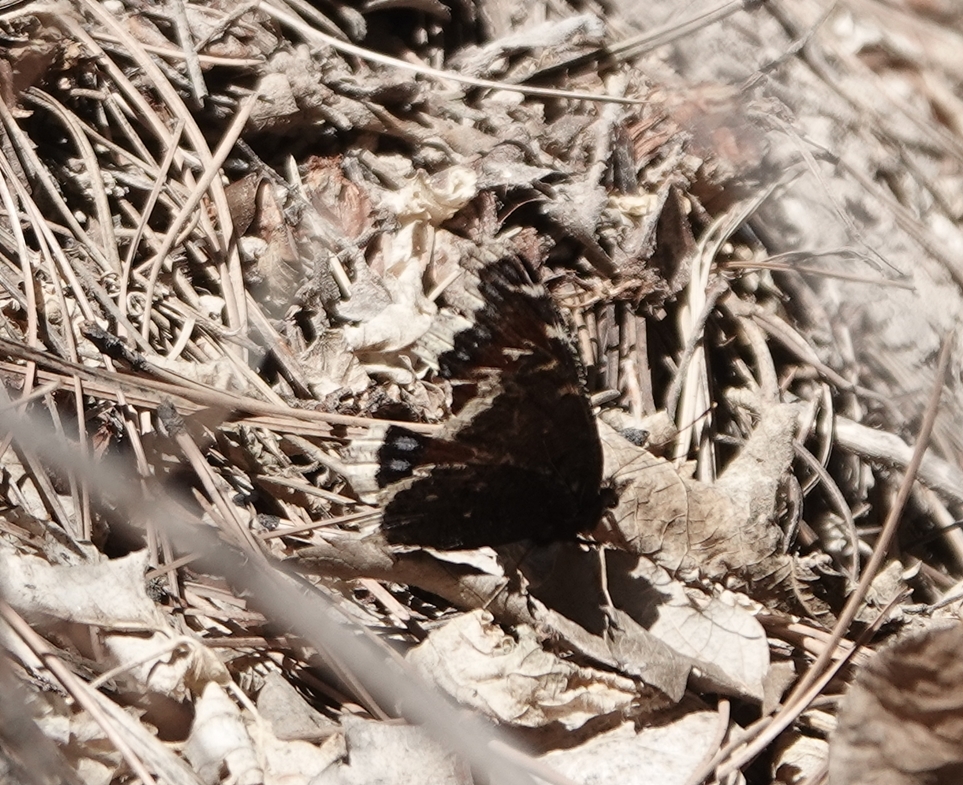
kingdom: Animalia
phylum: Arthropoda
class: Insecta
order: Lepidoptera
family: Nymphalidae
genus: Nymphalis
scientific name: Nymphalis antiopa
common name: Camberwell beauty
